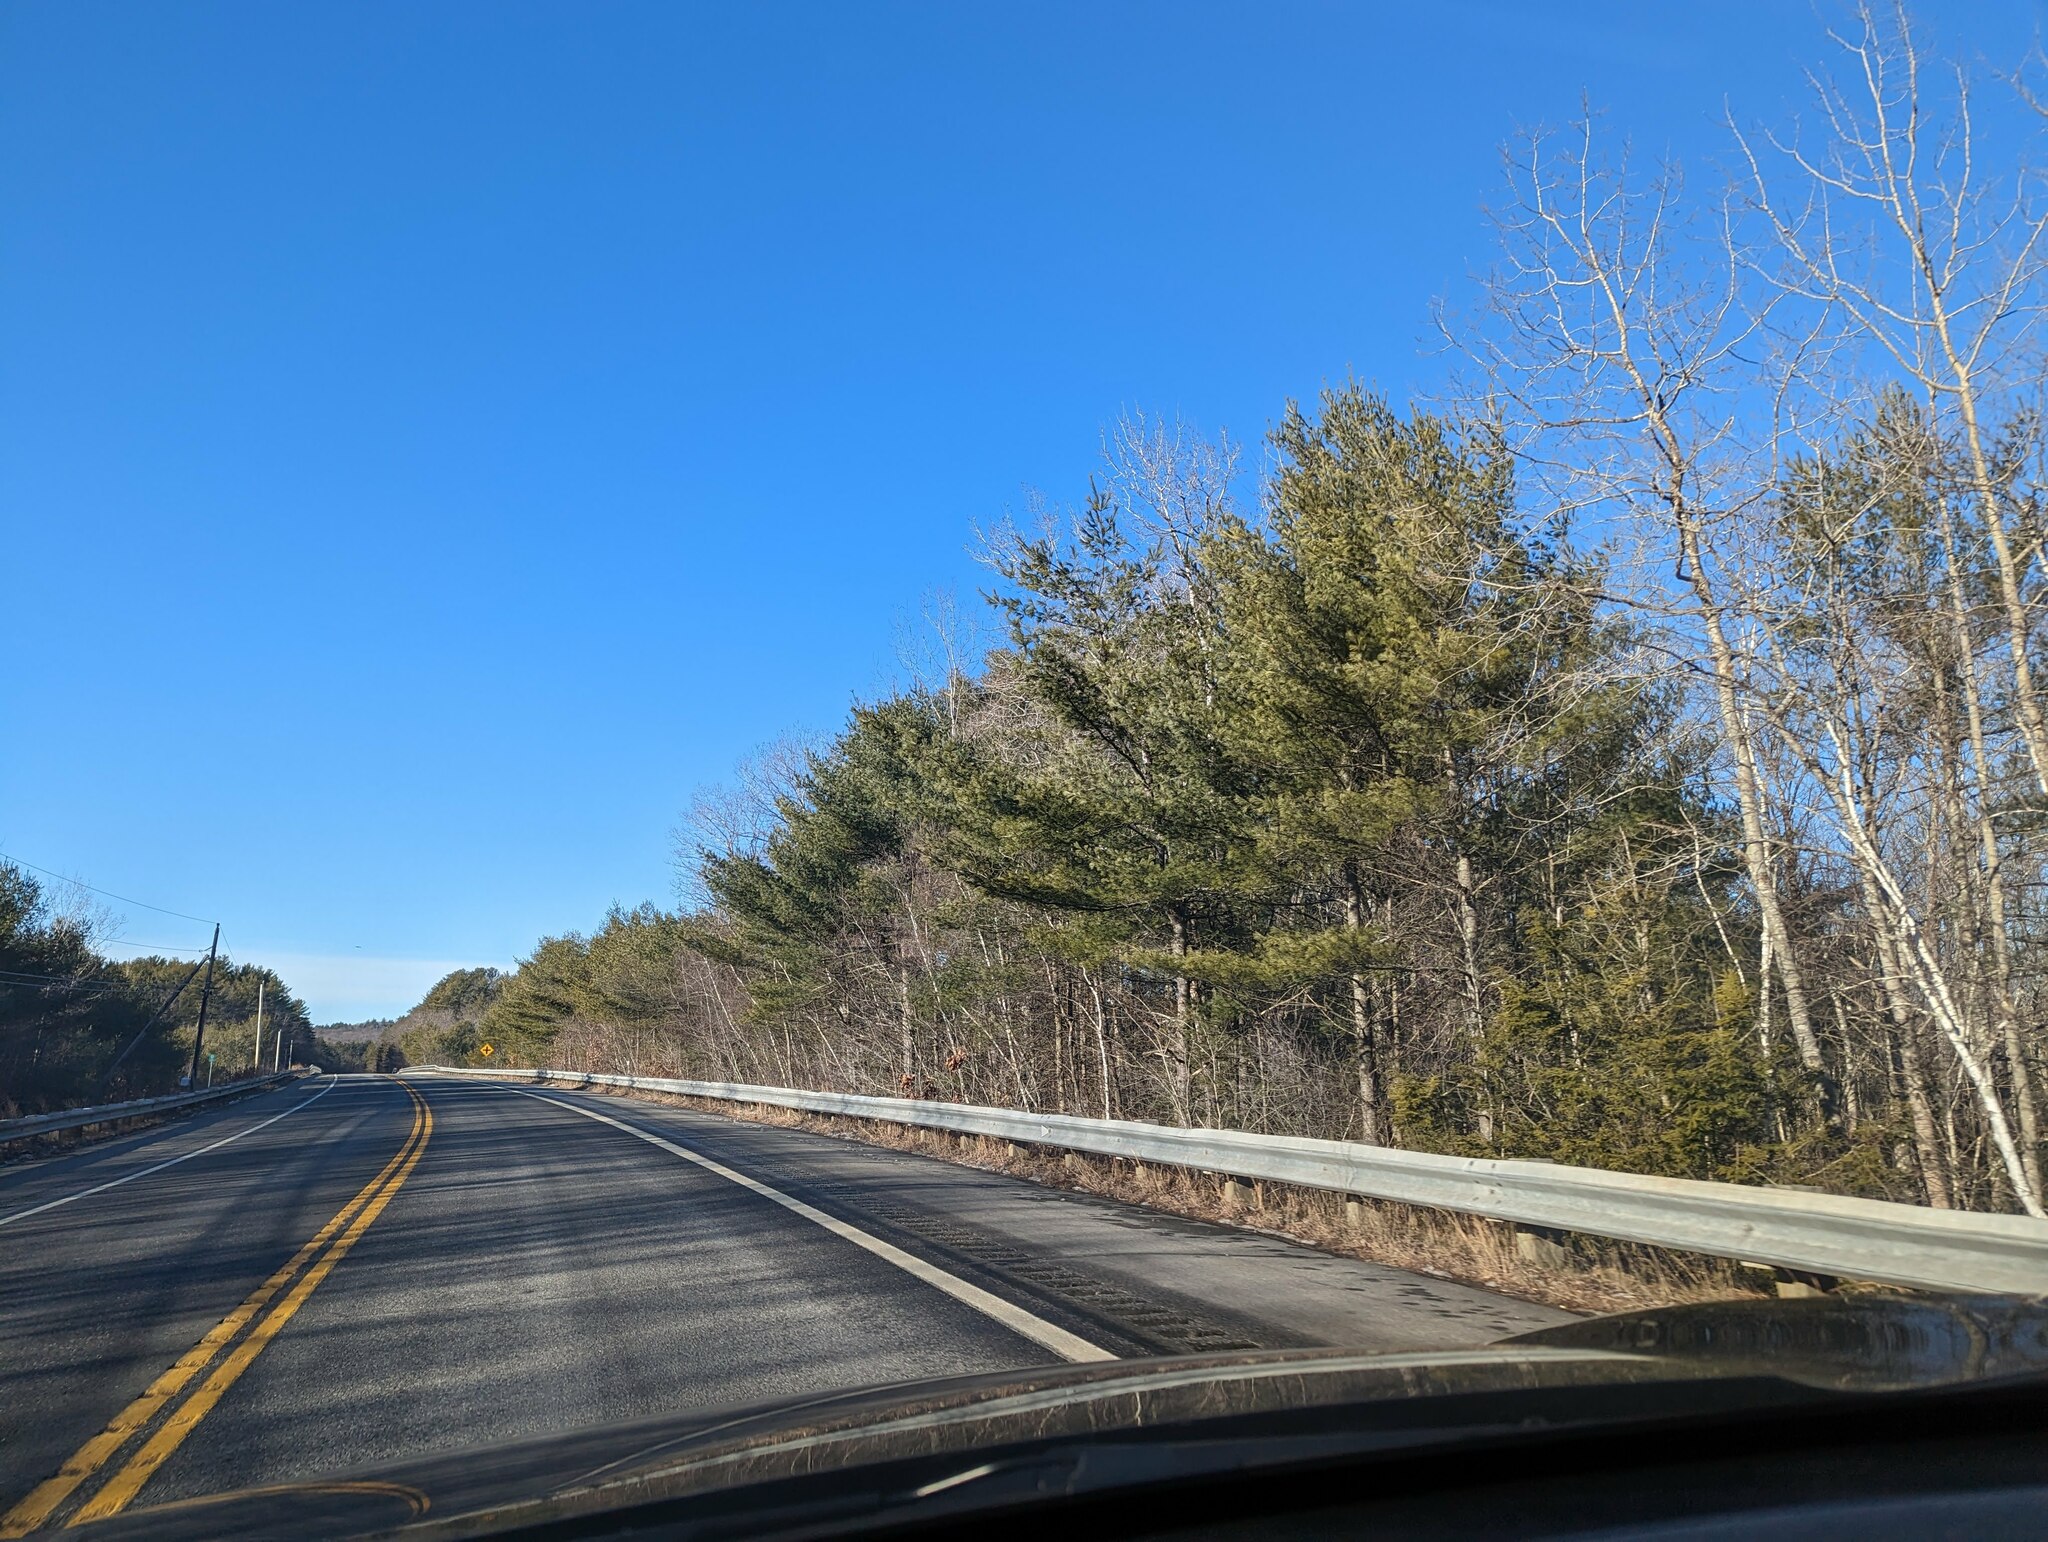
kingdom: Plantae
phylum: Tracheophyta
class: Pinopsida
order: Pinales
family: Pinaceae
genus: Pinus
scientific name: Pinus strobus
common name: Weymouth pine
